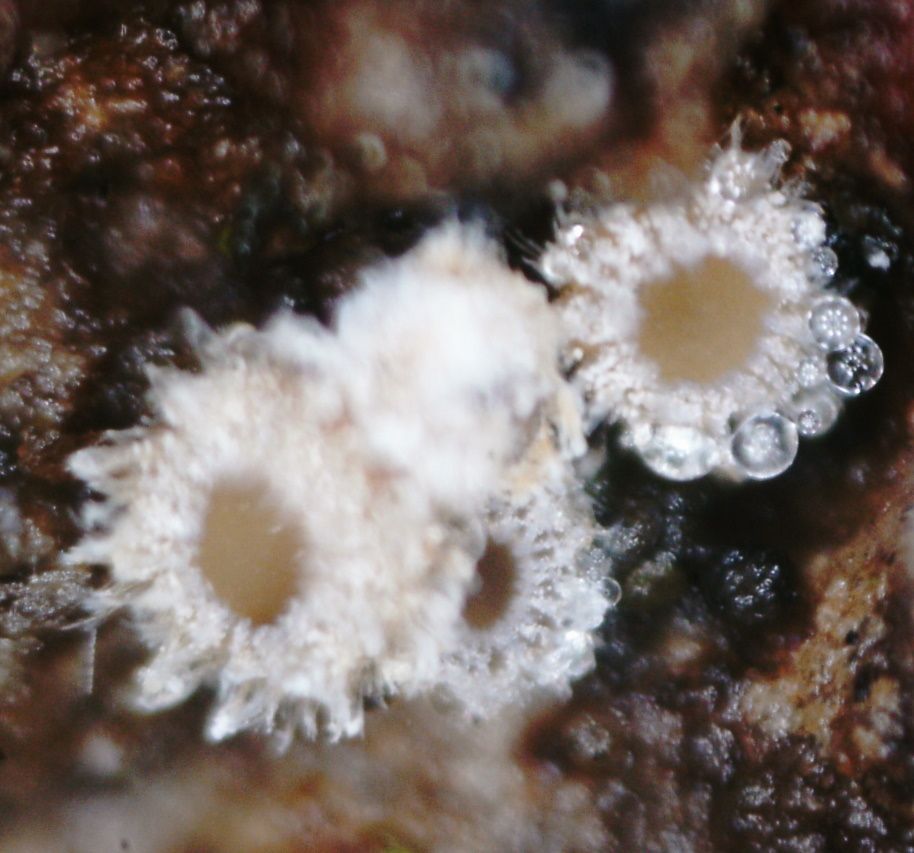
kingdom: Fungi
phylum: Ascomycota
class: Leotiomycetes
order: Helotiales
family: Lachnaceae
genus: Lachnum
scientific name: Lachnum corticale
